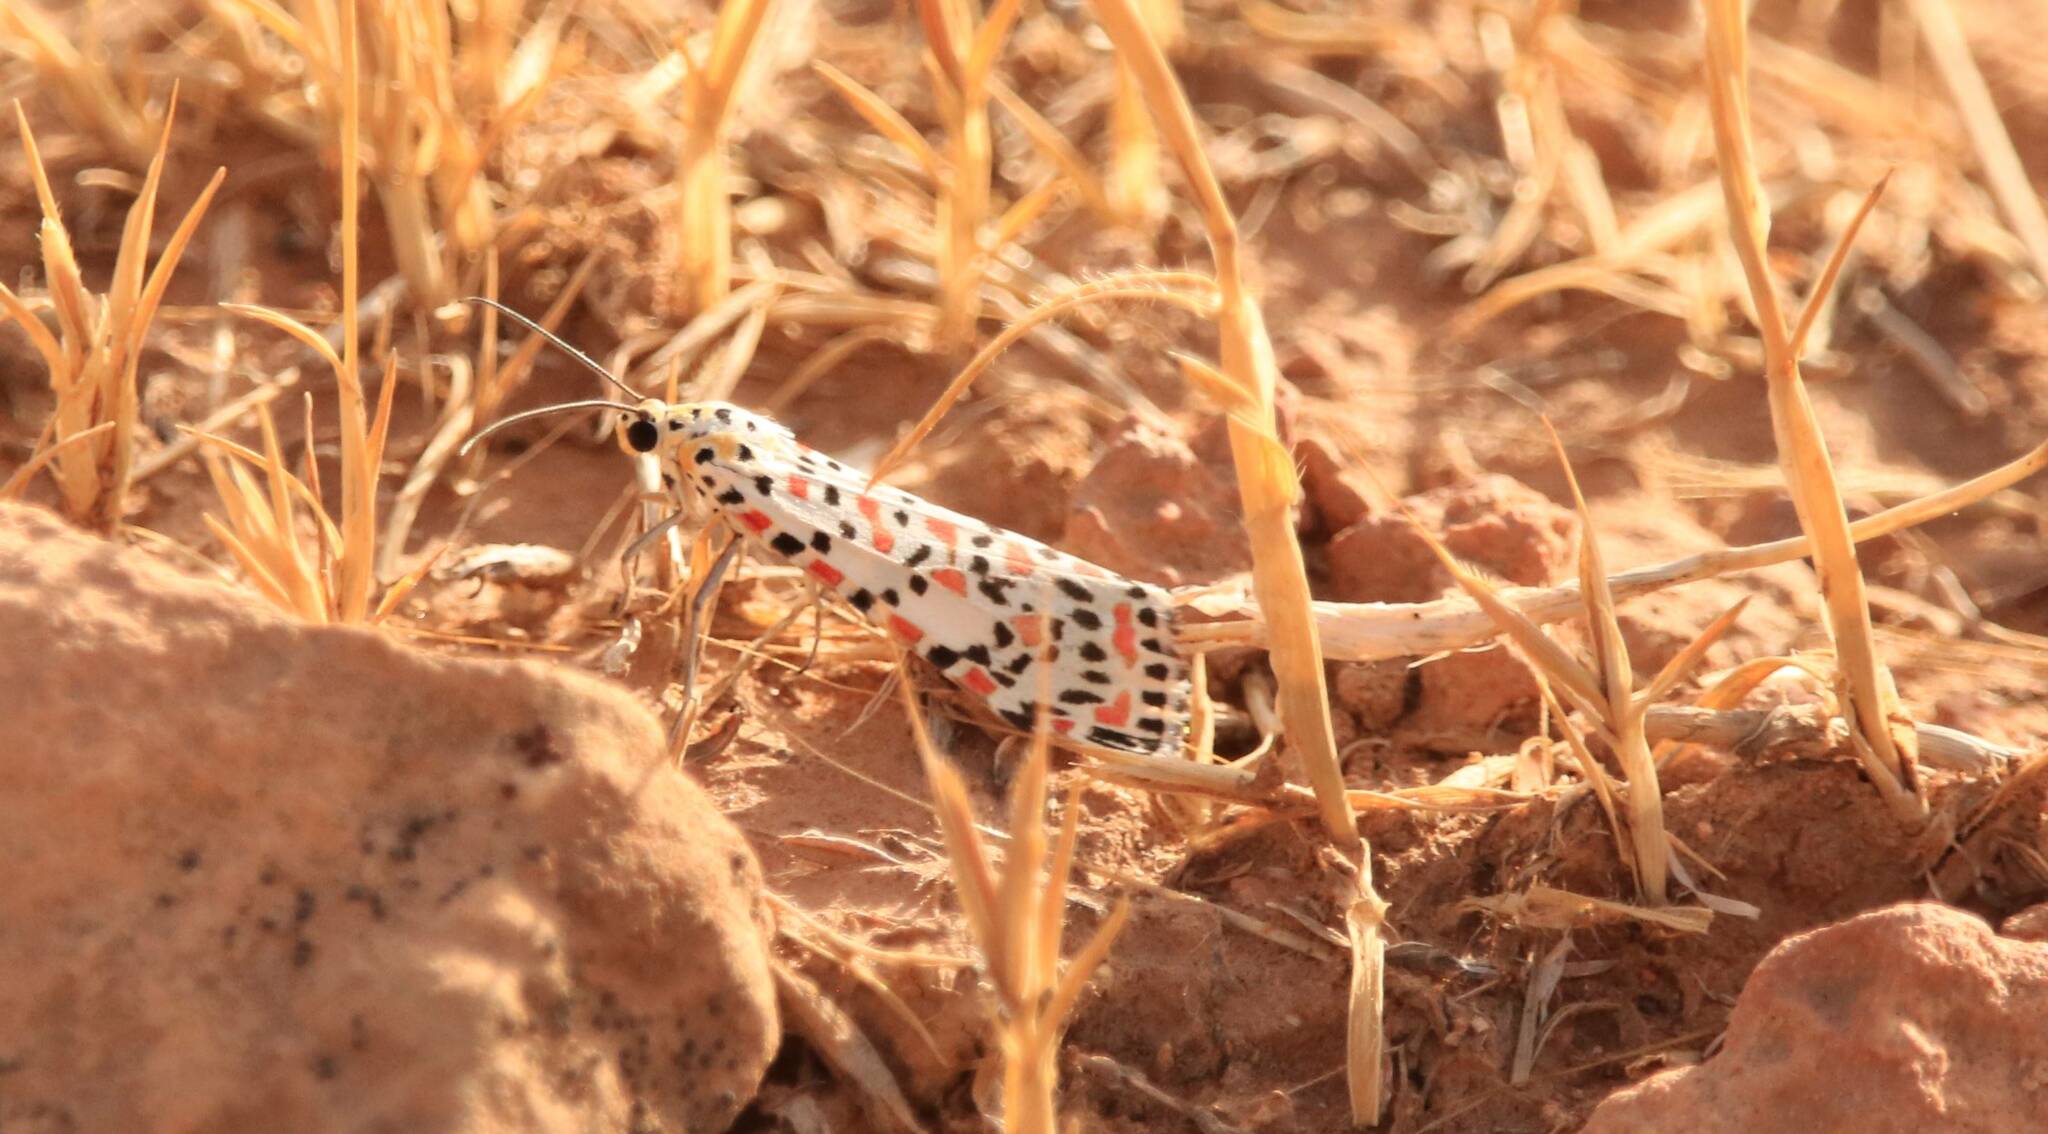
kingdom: Animalia
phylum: Arthropoda
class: Insecta
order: Lepidoptera
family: Erebidae
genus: Utetheisa
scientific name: Utetheisa pulchella
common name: Crimson speckled
